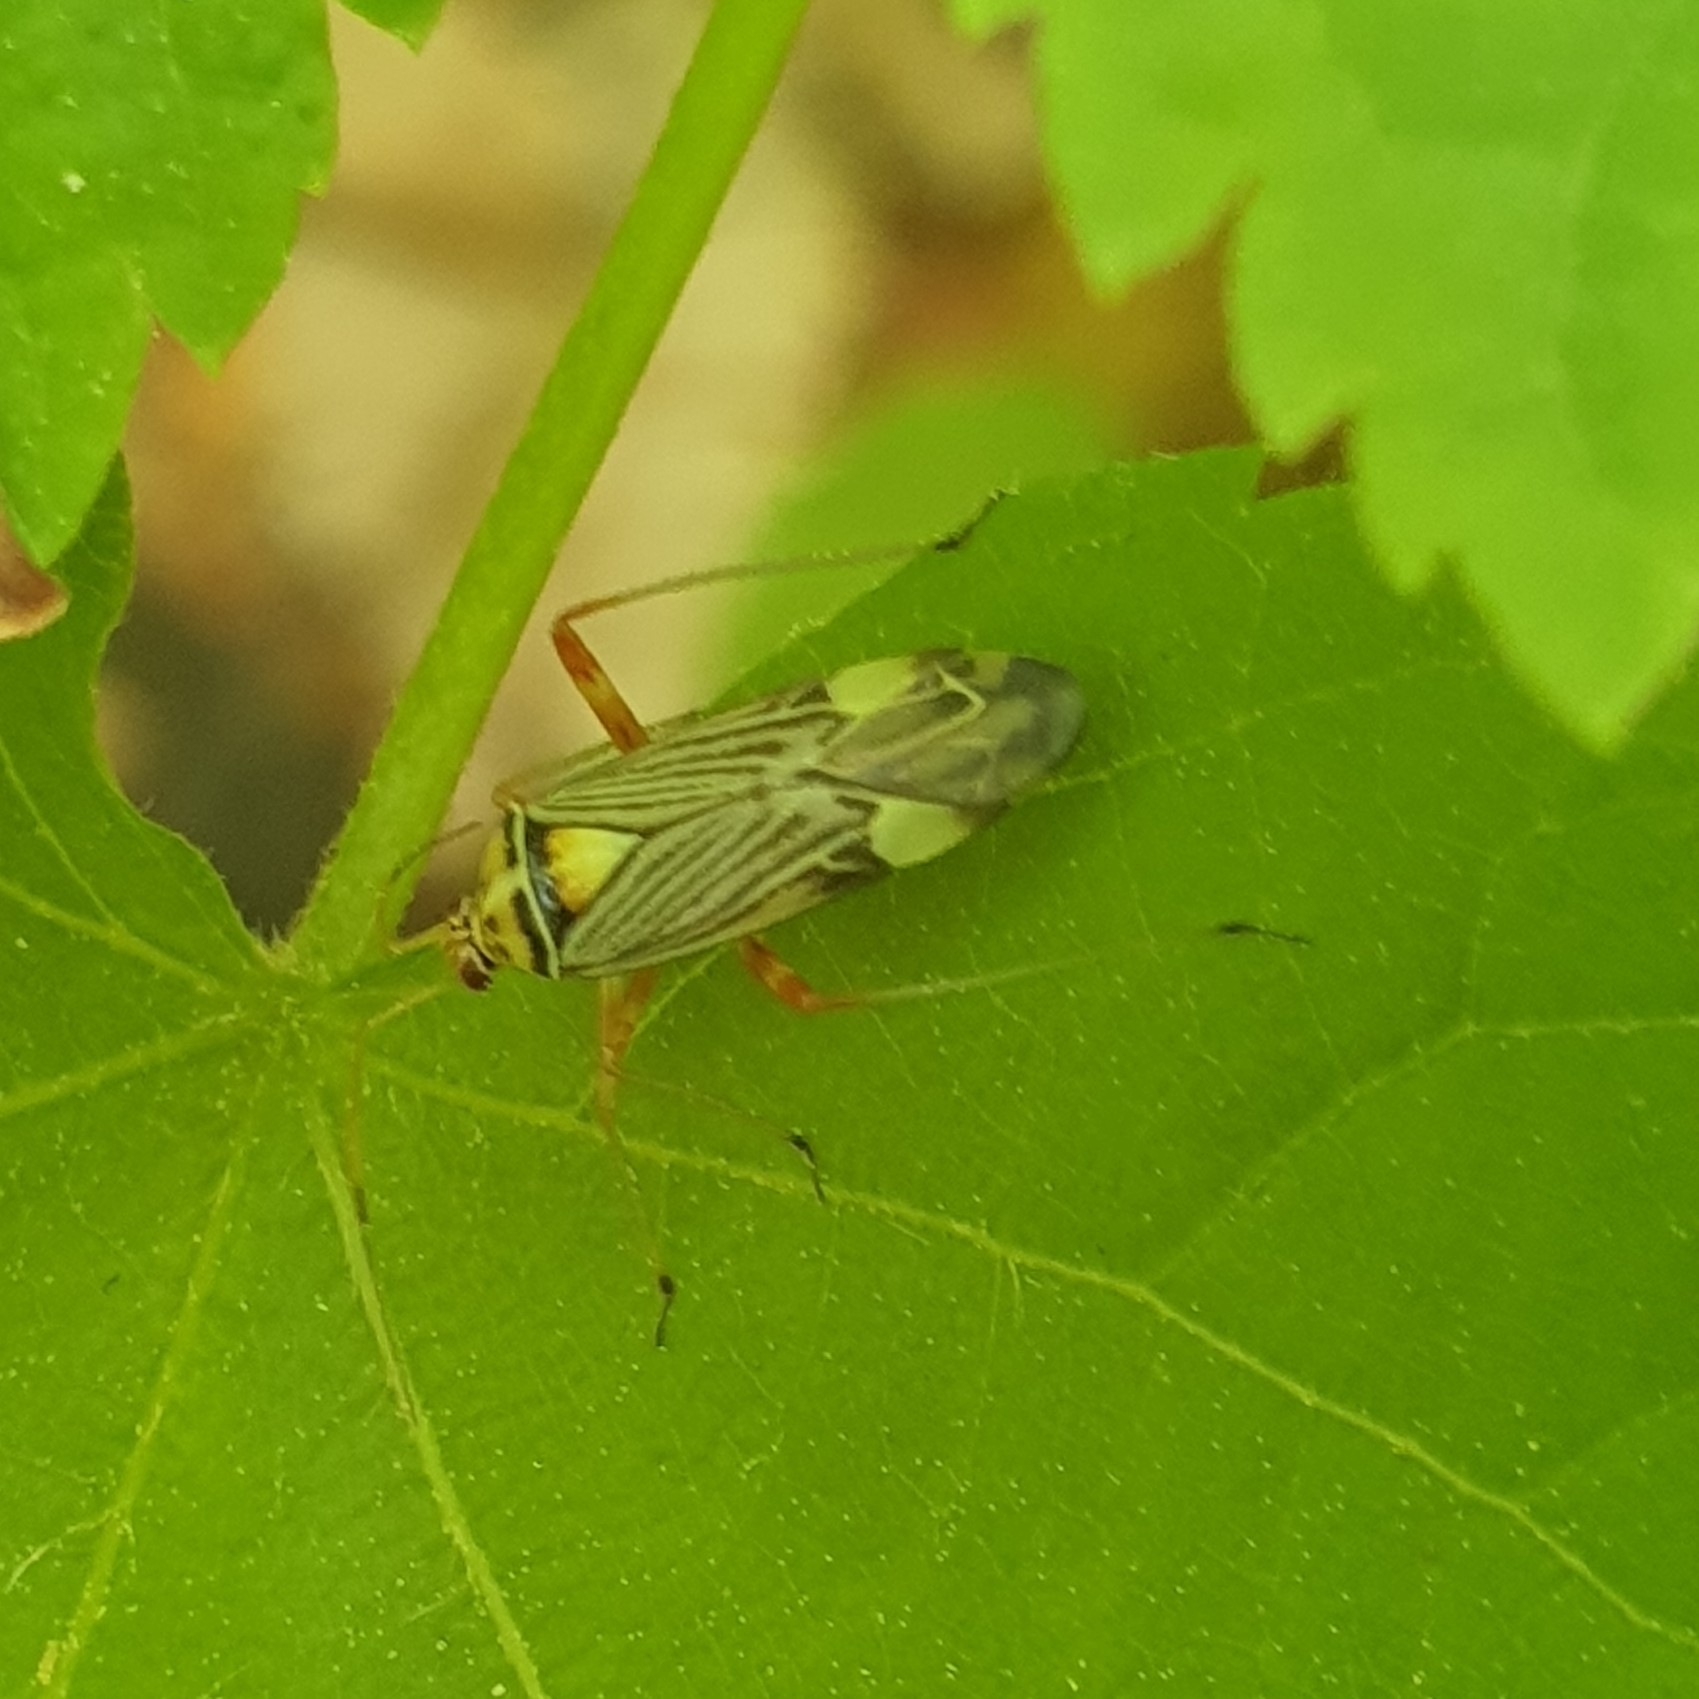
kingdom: Animalia
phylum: Arthropoda
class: Insecta
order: Hemiptera
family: Miridae
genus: Rhabdomiris
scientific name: Rhabdomiris striatellus
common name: Plant bug
